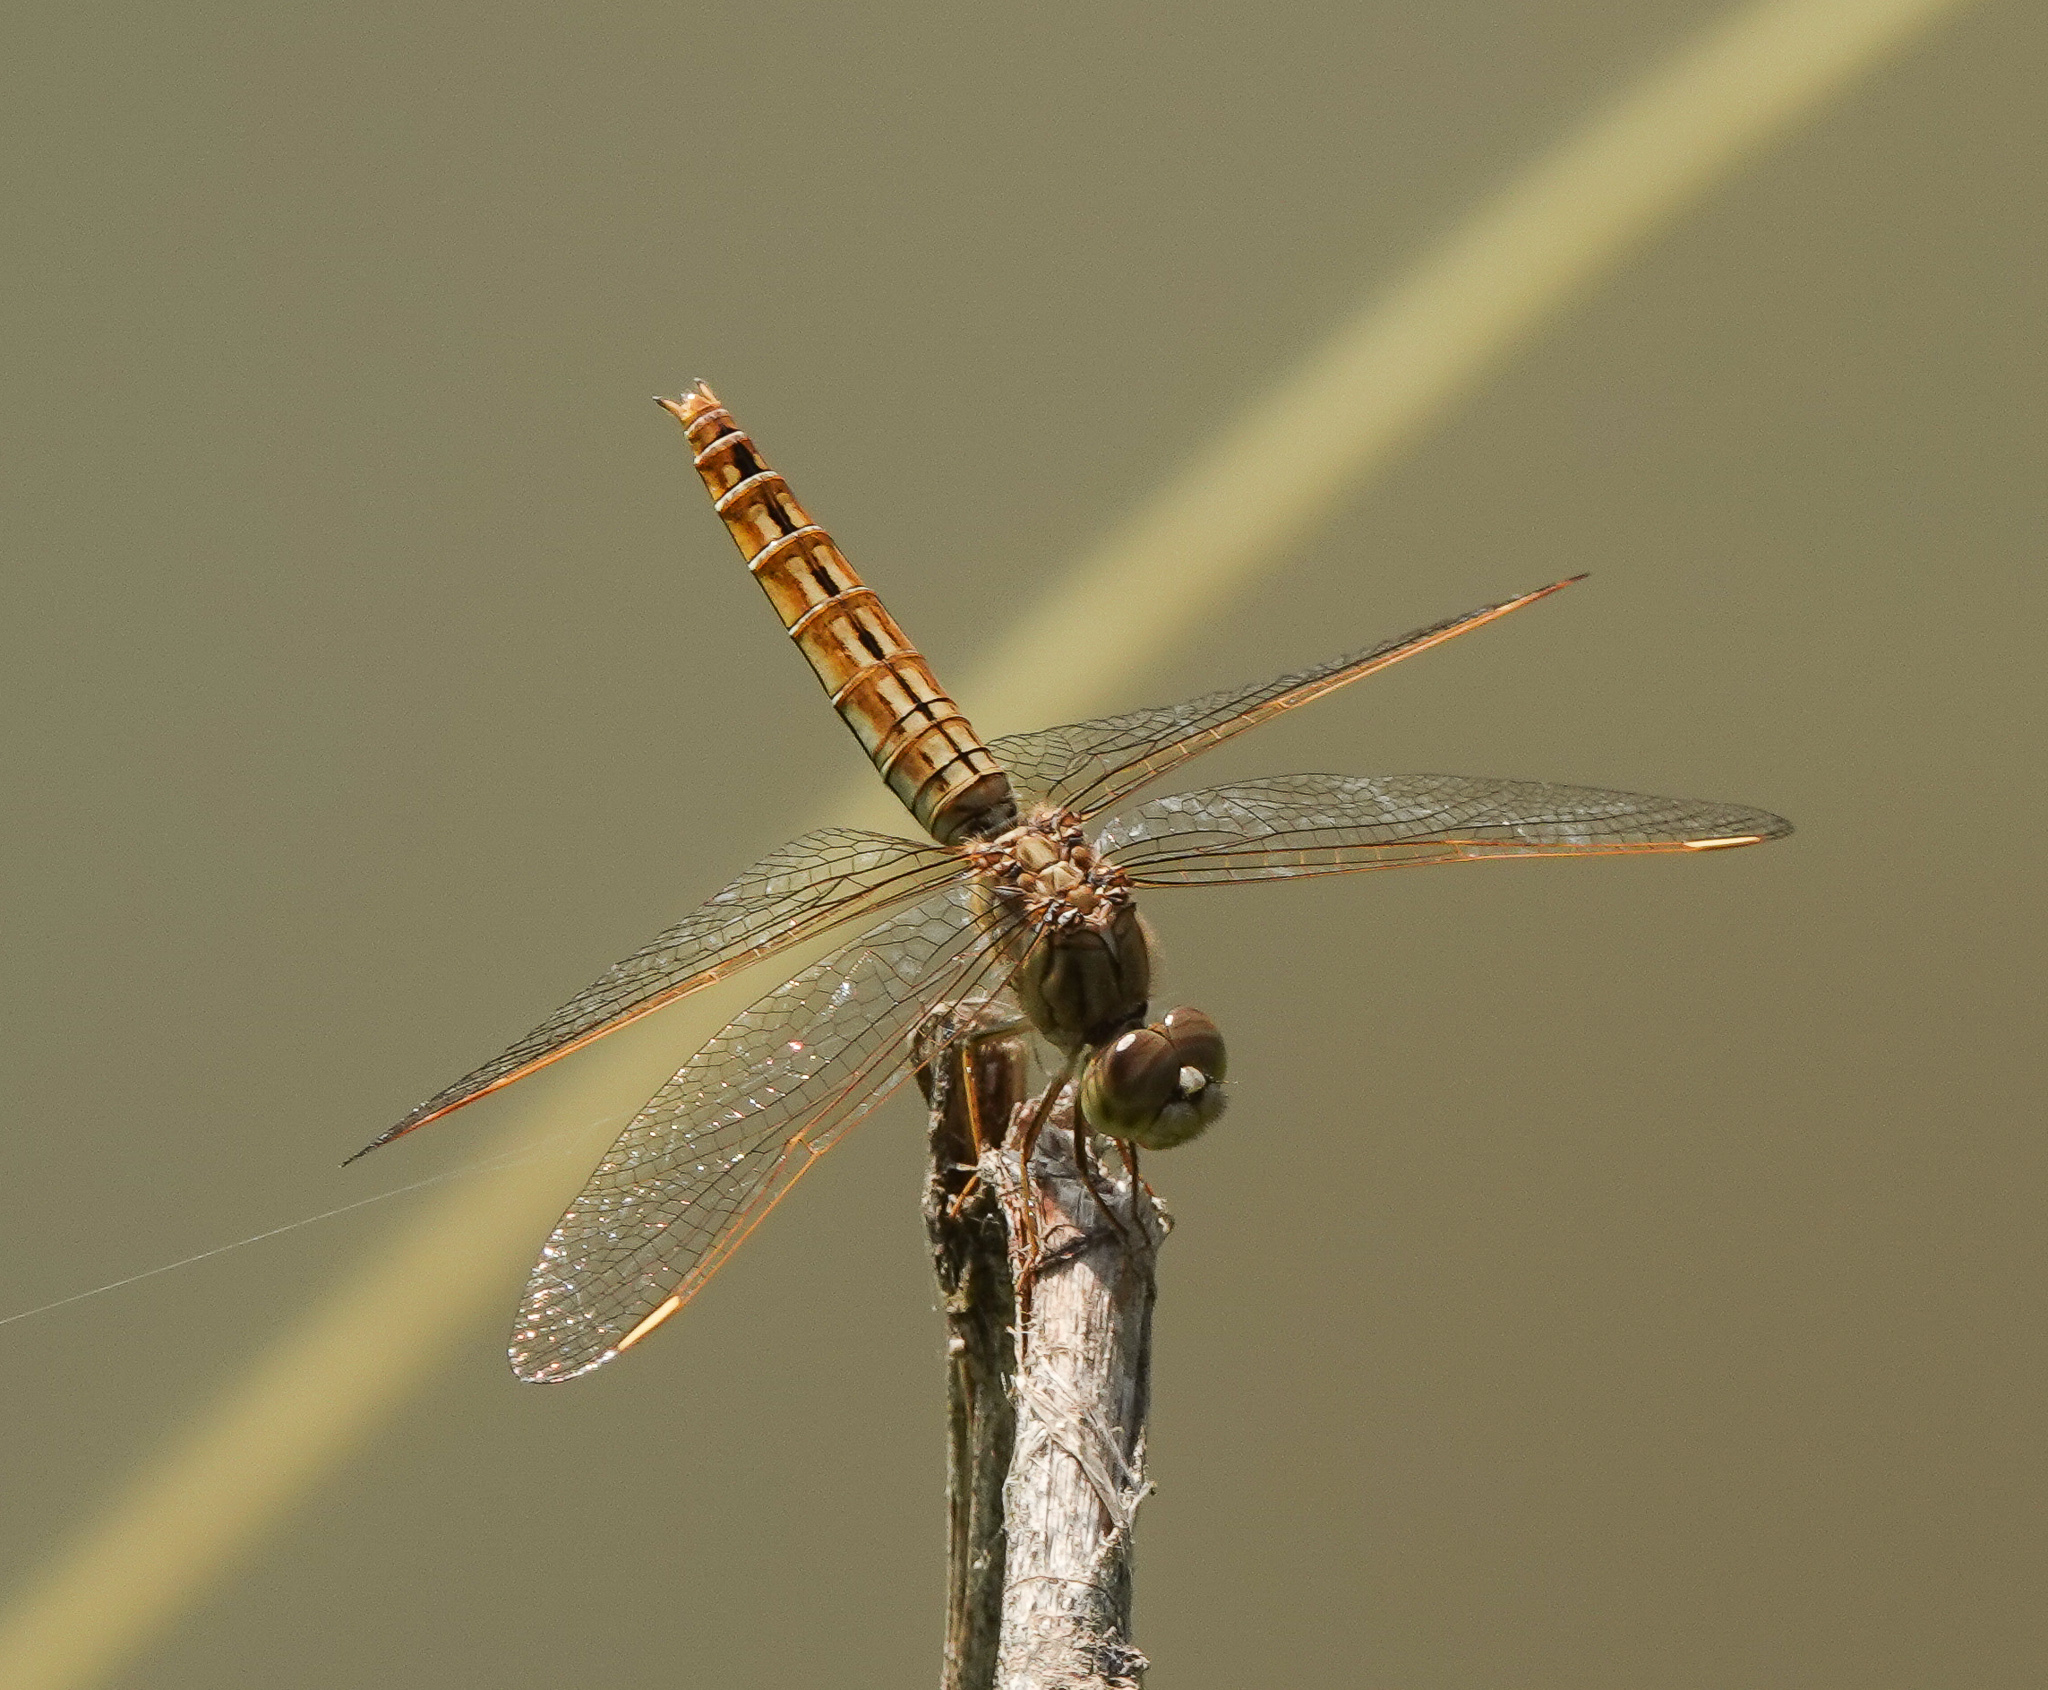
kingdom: Animalia
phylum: Arthropoda
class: Insecta
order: Odonata
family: Libellulidae
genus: Brachythemis
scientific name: Brachythemis contaminata
